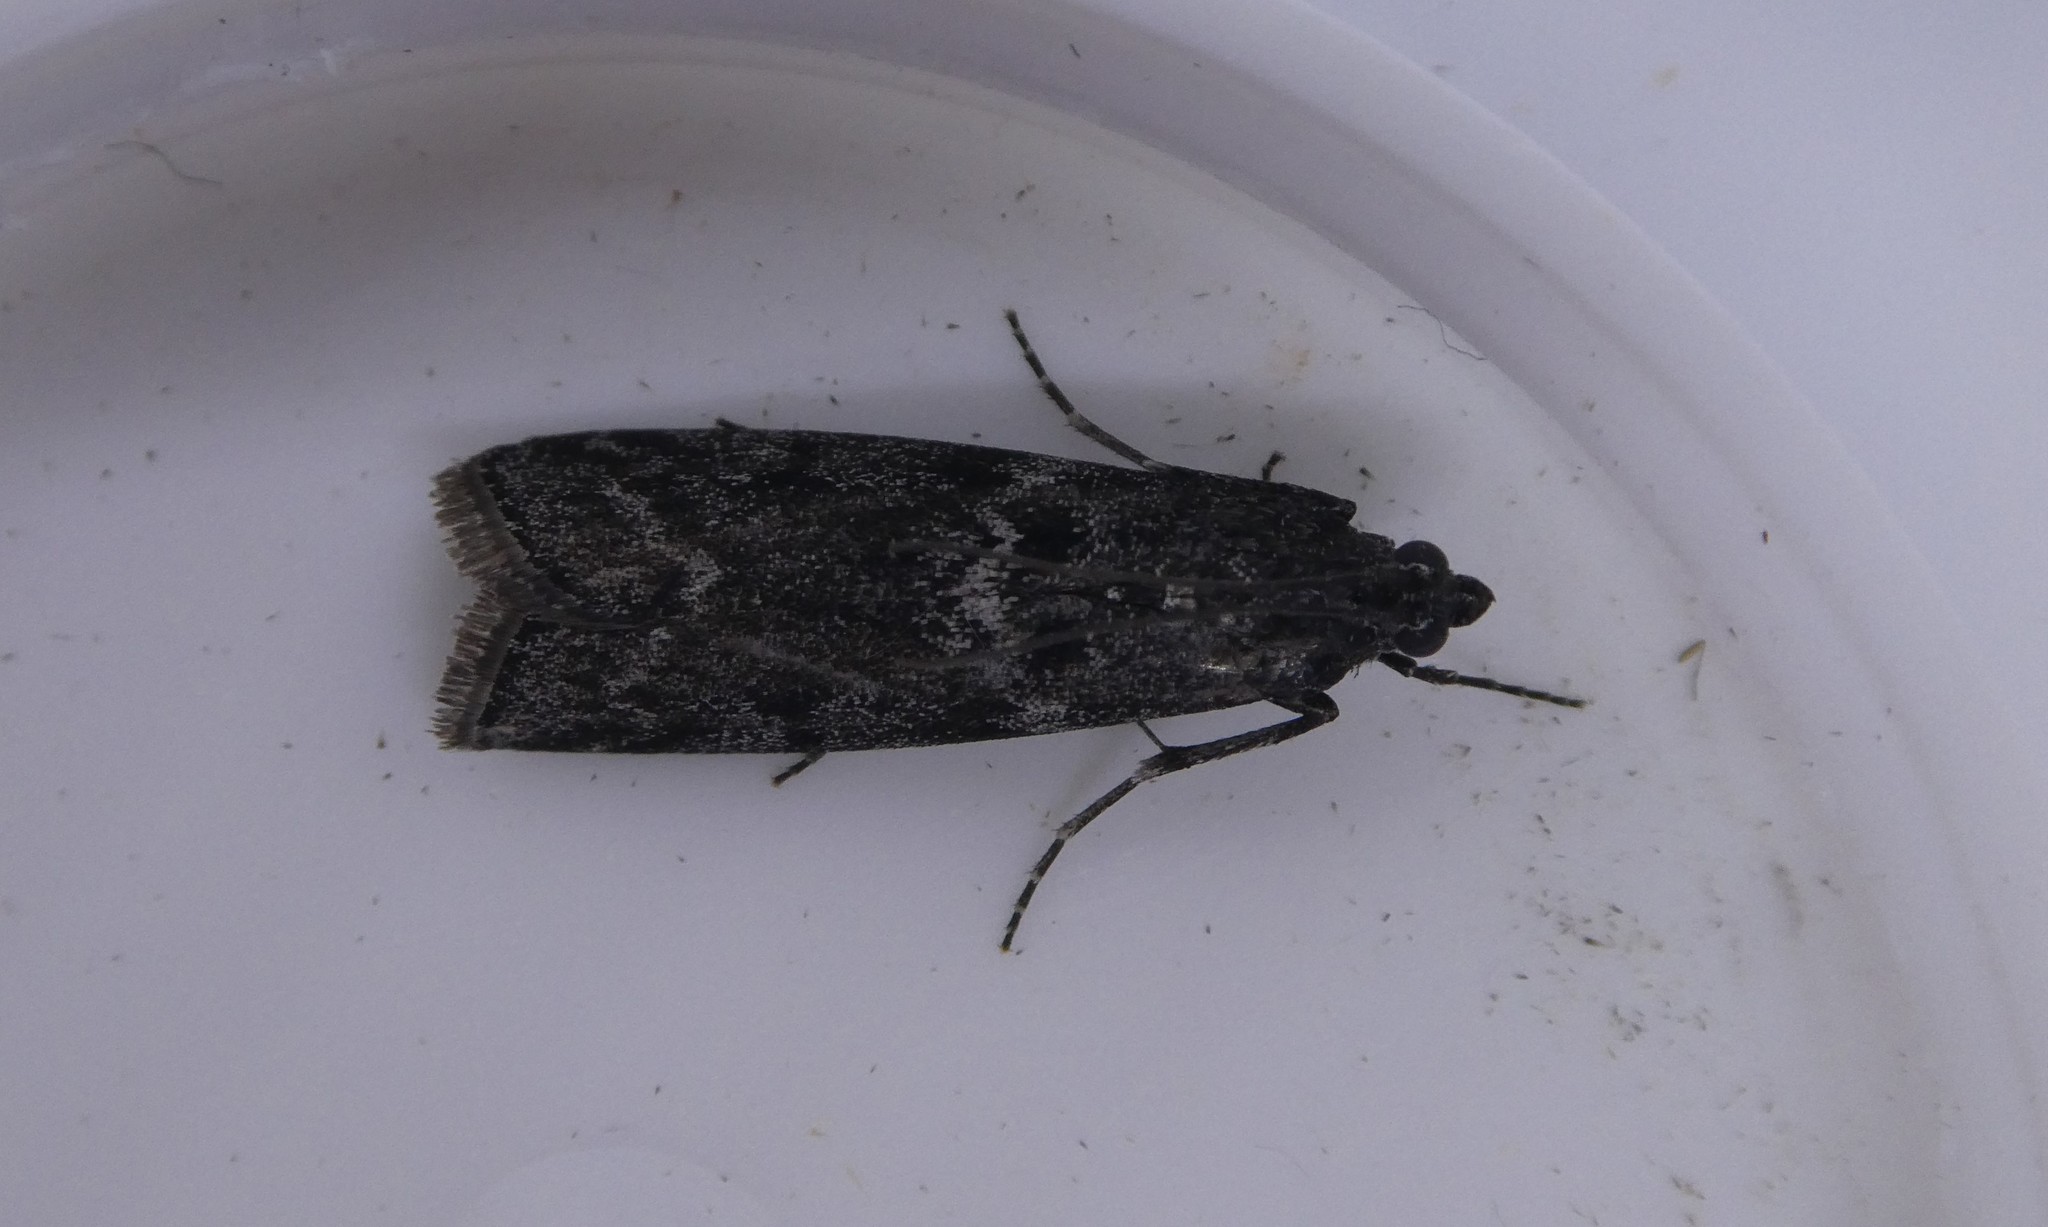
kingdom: Animalia
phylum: Arthropoda
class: Insecta
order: Lepidoptera
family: Pyralidae
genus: Pyla
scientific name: Pyla fusca
